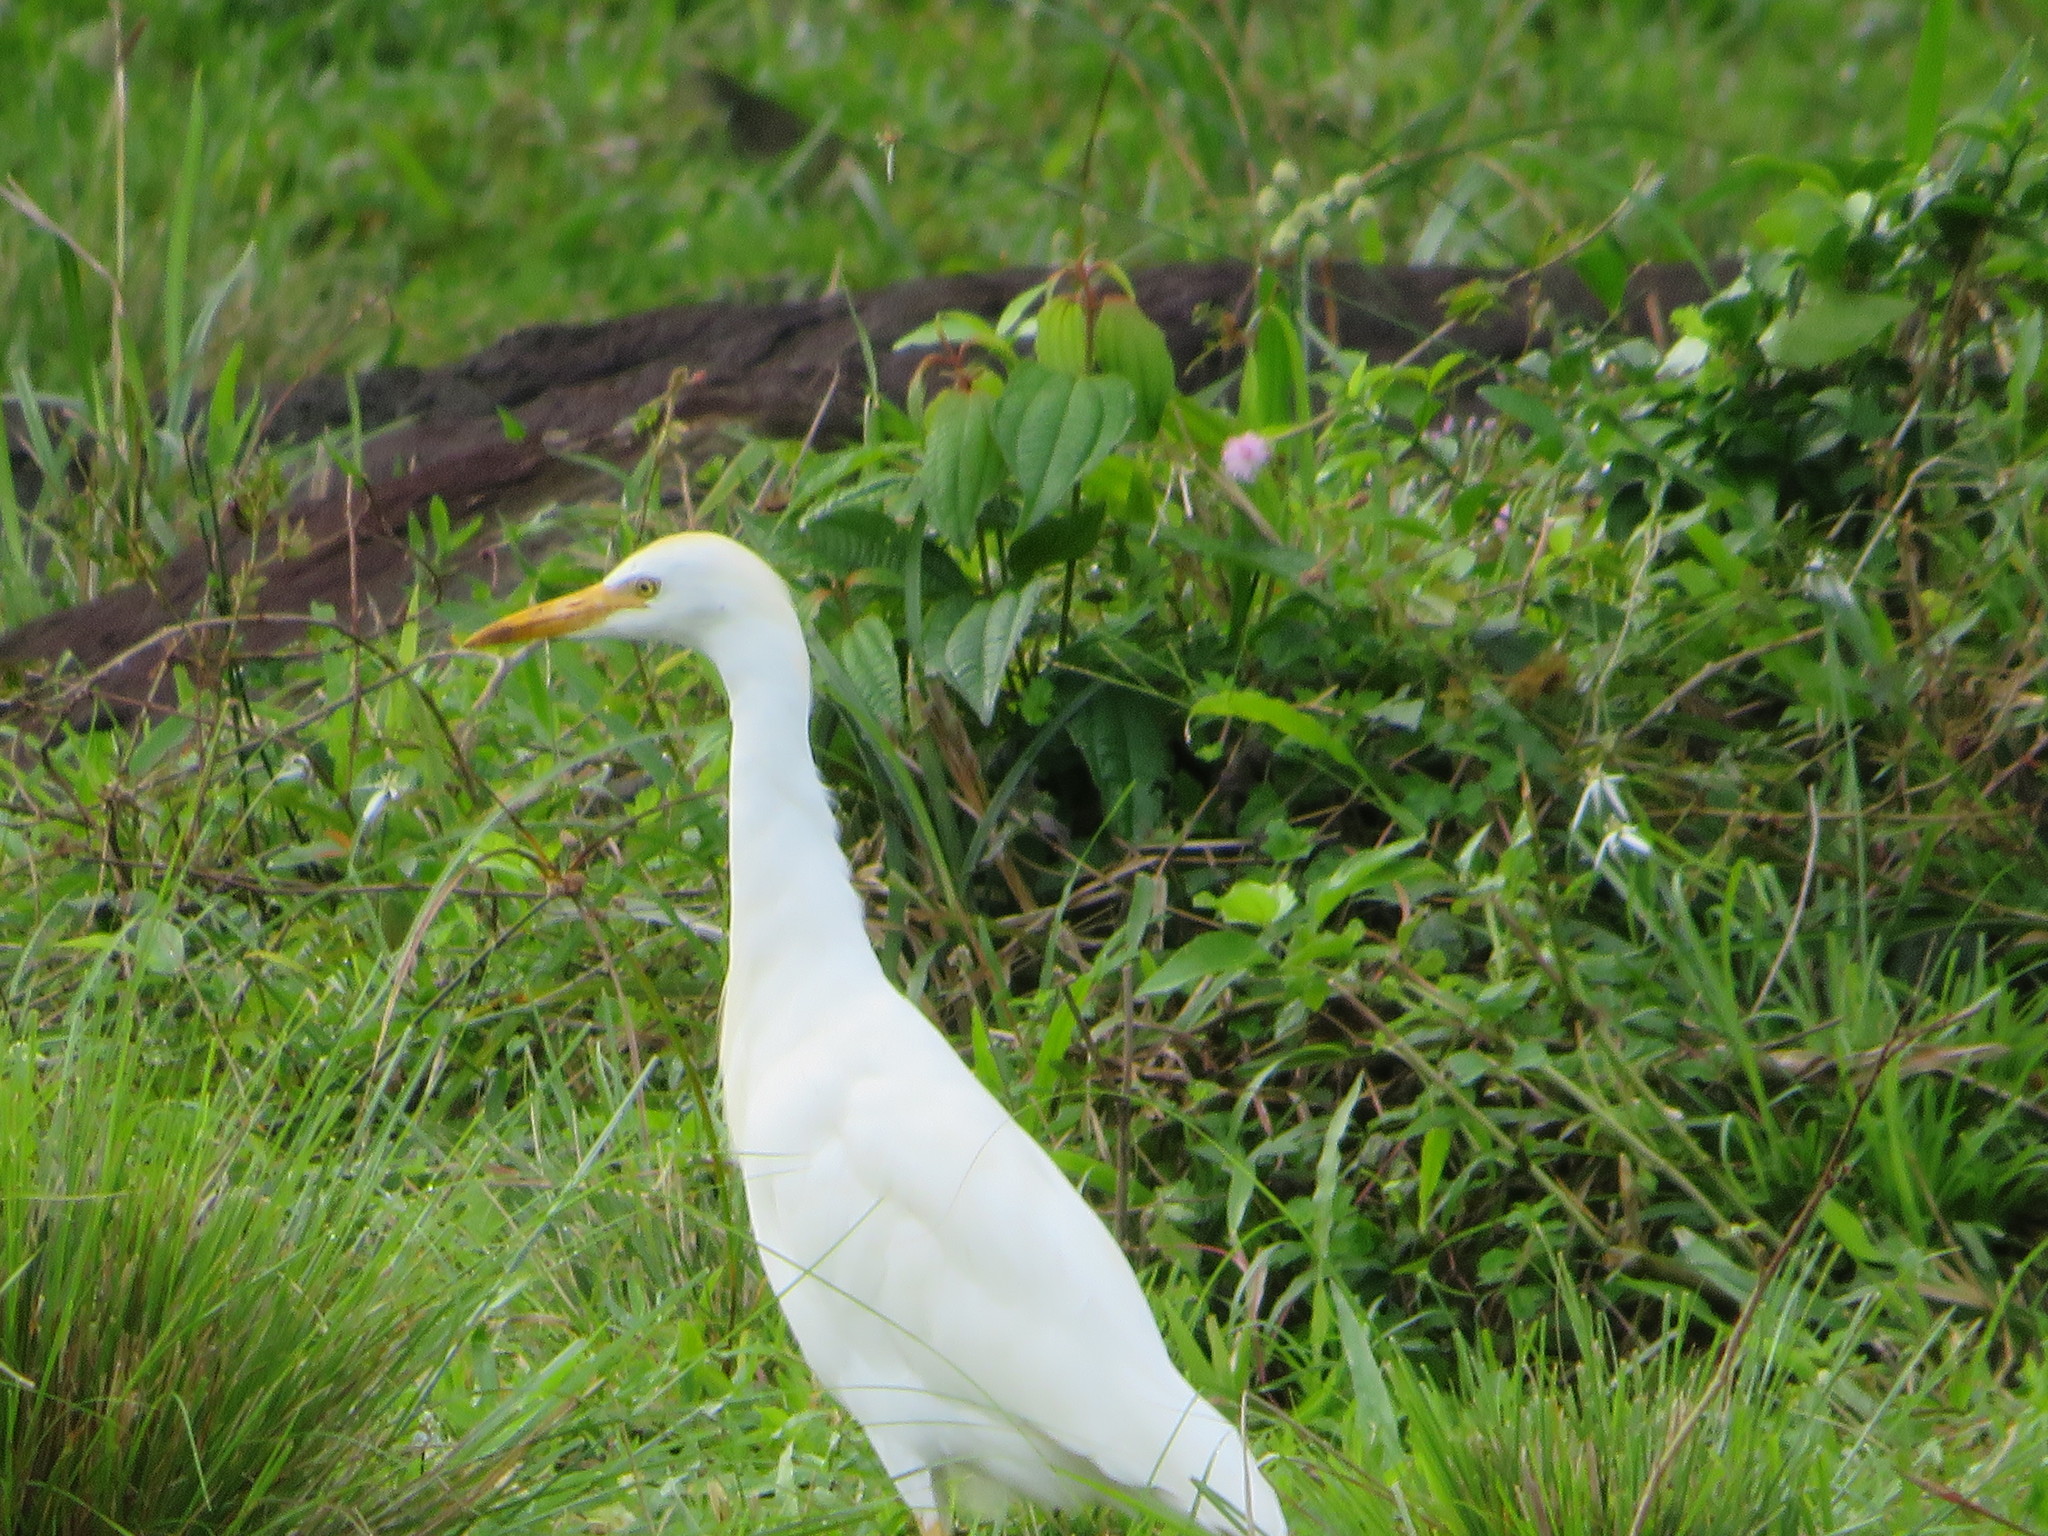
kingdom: Animalia
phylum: Chordata
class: Aves
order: Pelecaniformes
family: Ardeidae
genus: Bubulcus
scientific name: Bubulcus ibis
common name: Cattle egret
